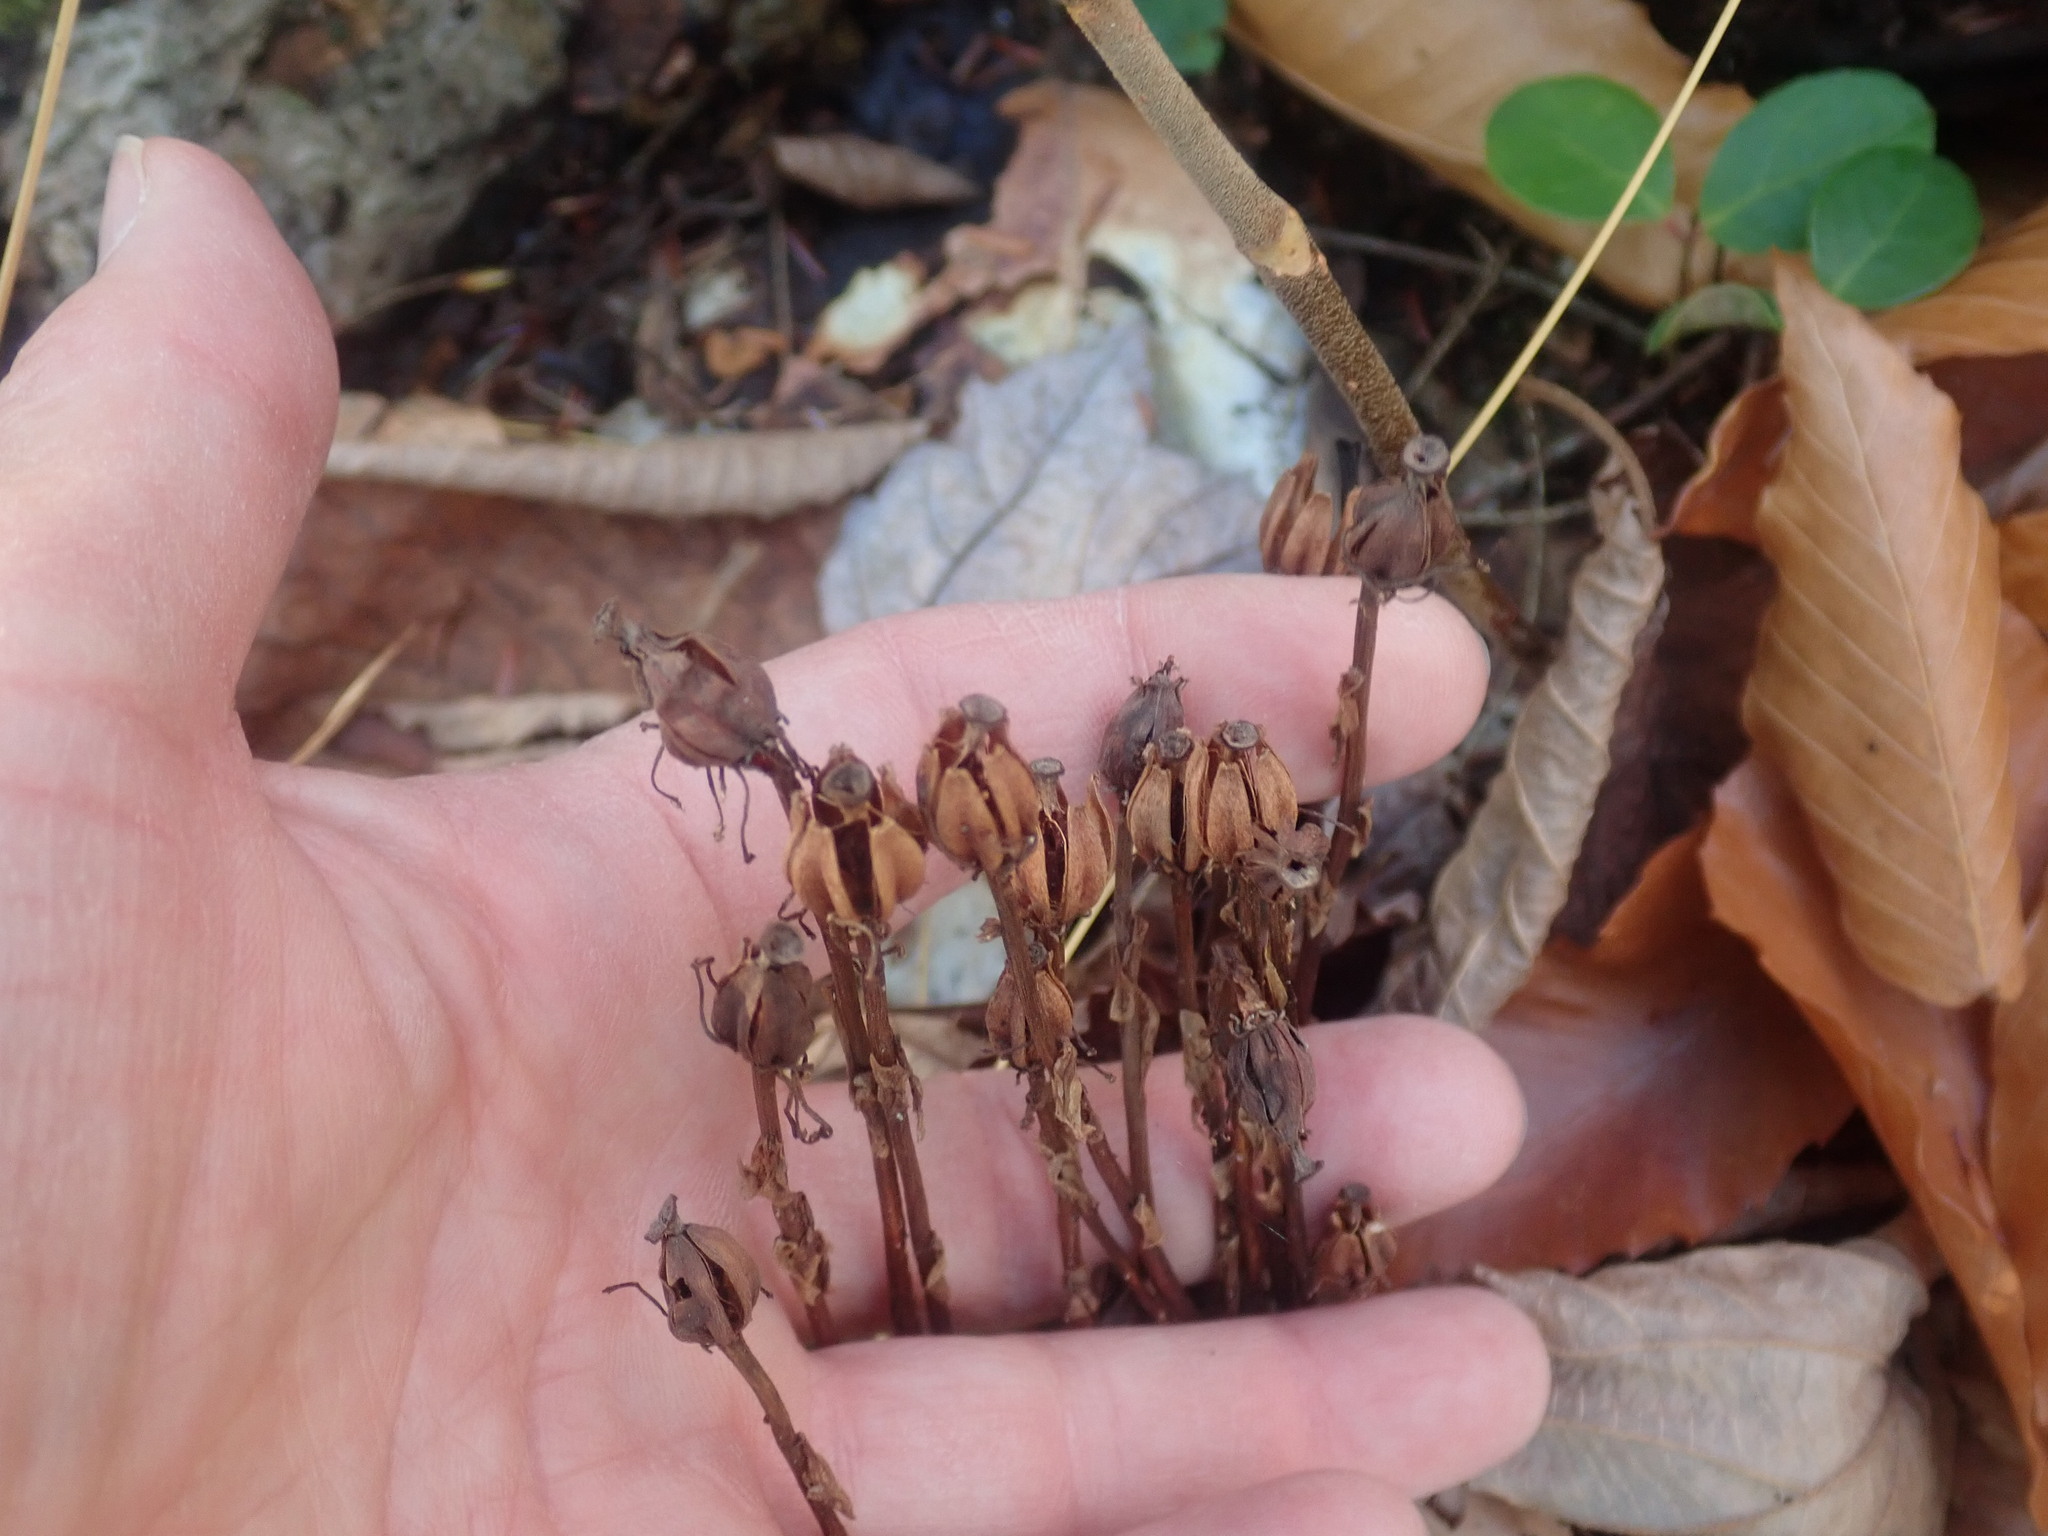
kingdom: Plantae
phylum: Tracheophyta
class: Magnoliopsida
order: Ericales
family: Ericaceae
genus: Monotropa
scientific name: Monotropa uniflora
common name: Convulsion root
